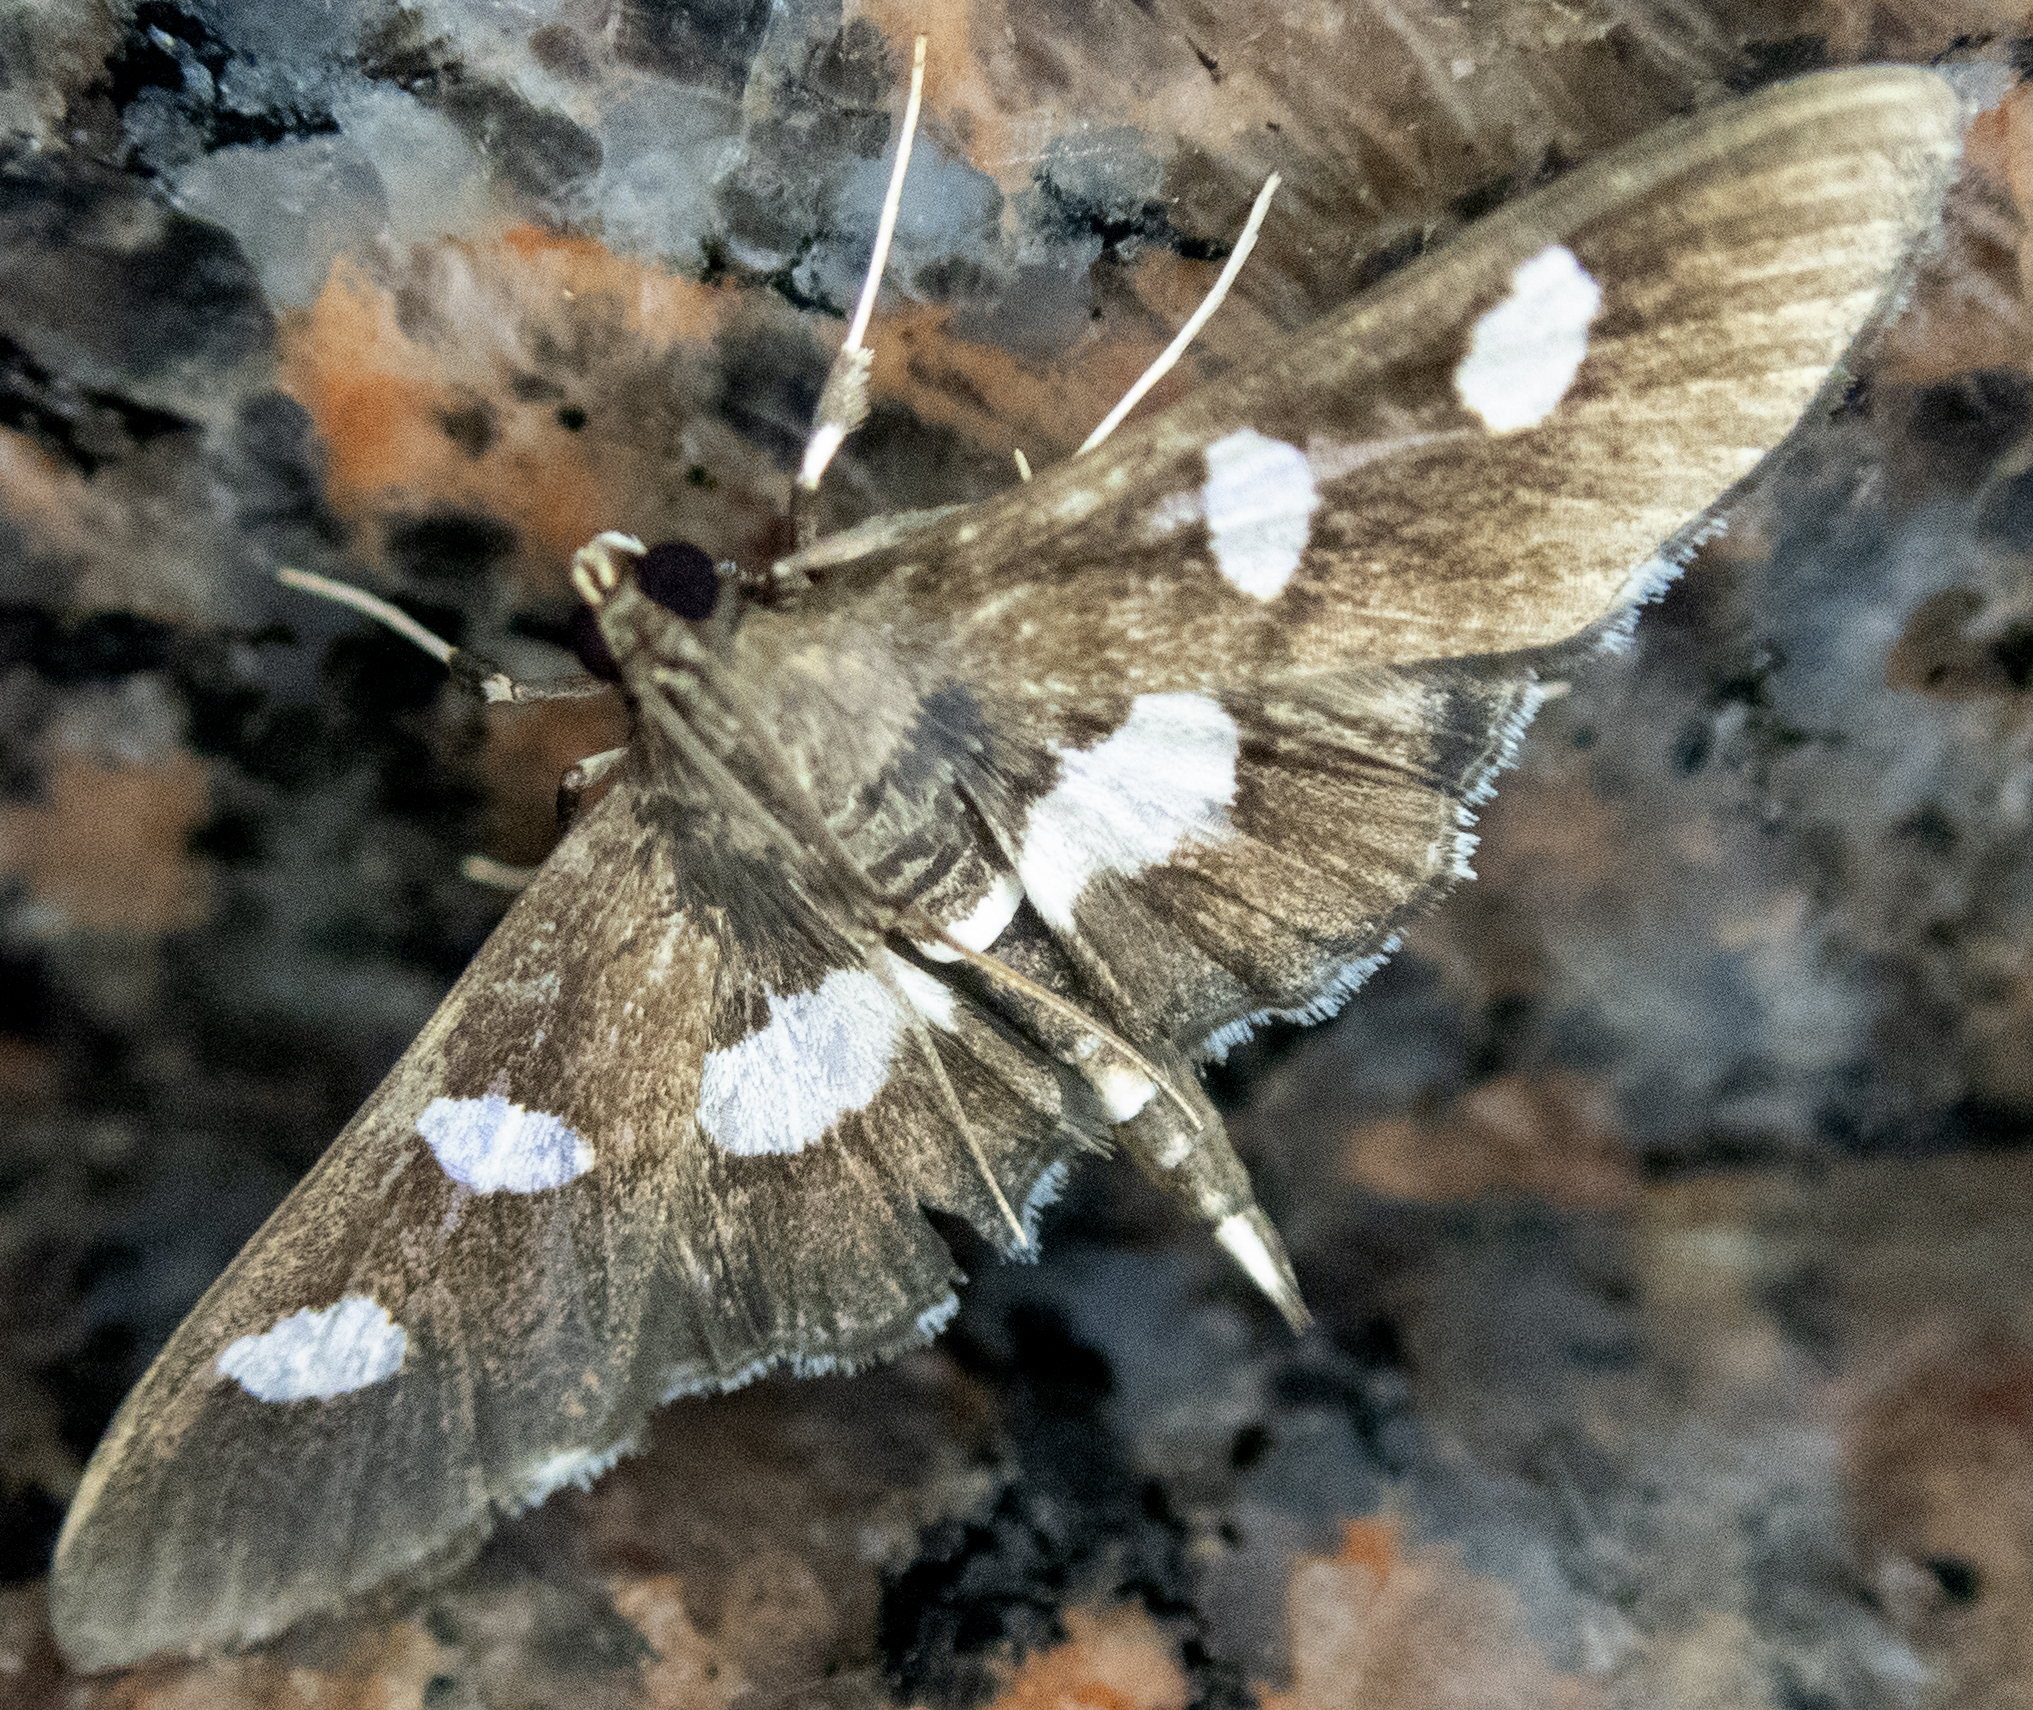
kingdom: Animalia
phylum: Arthropoda
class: Insecta
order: Lepidoptera
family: Crambidae
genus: Desmia
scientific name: Desmia
